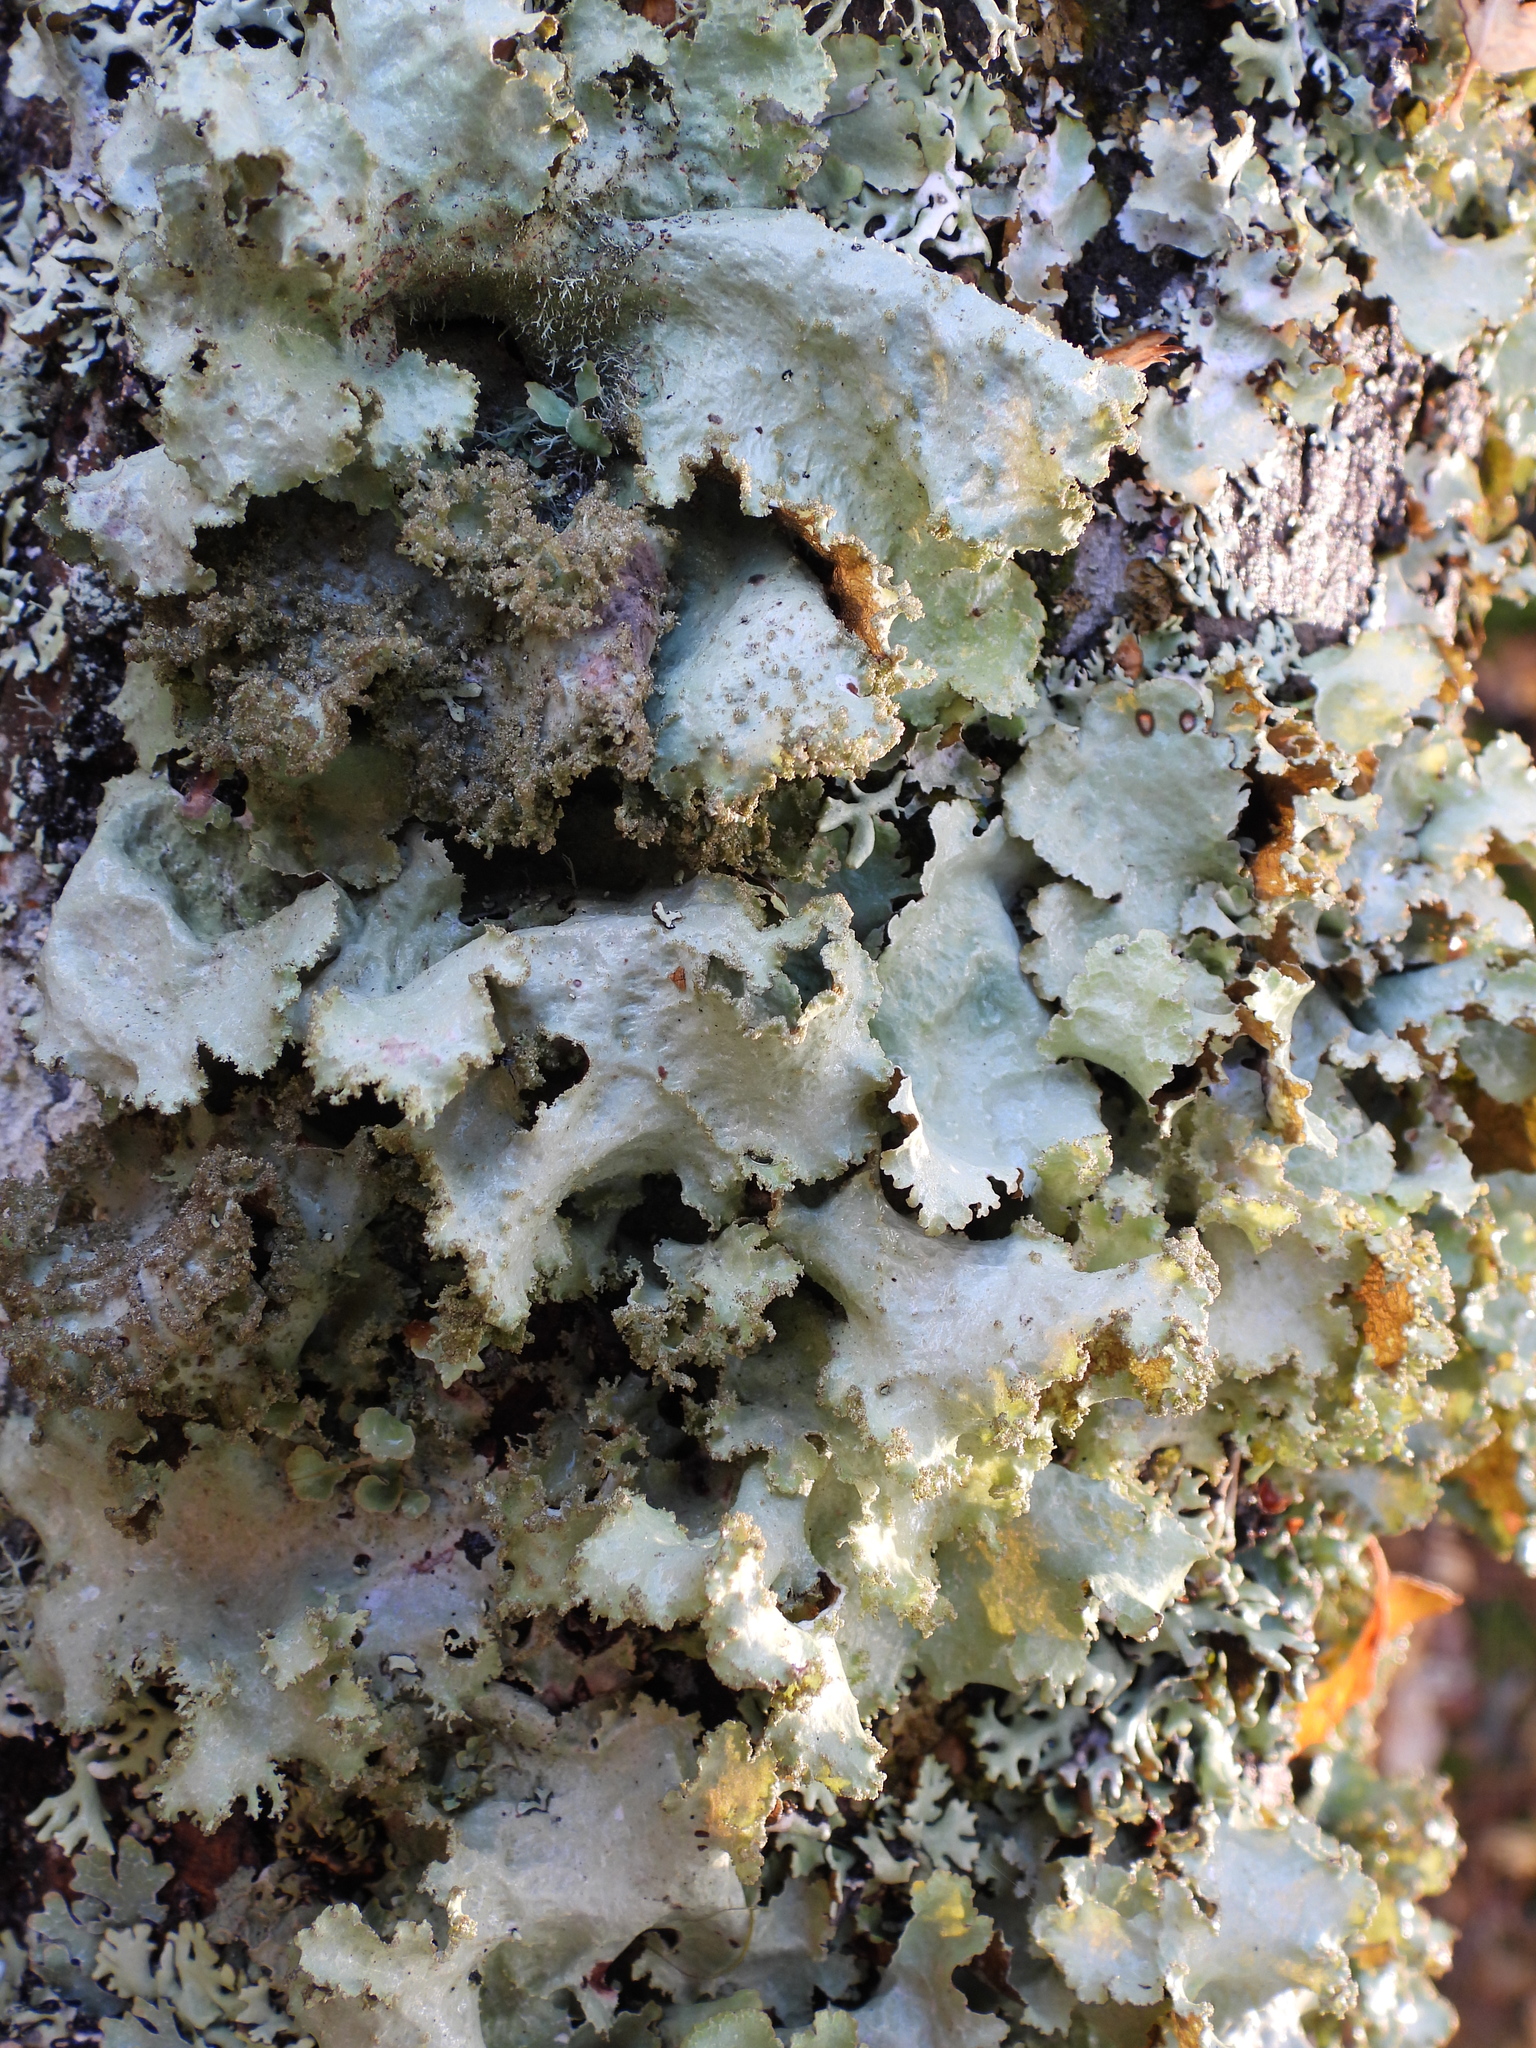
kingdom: Fungi
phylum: Ascomycota
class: Lecanoromycetes
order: Lecanorales
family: Parmeliaceae
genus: Platismatia
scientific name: Platismatia glauca
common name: Varied rag lichen
